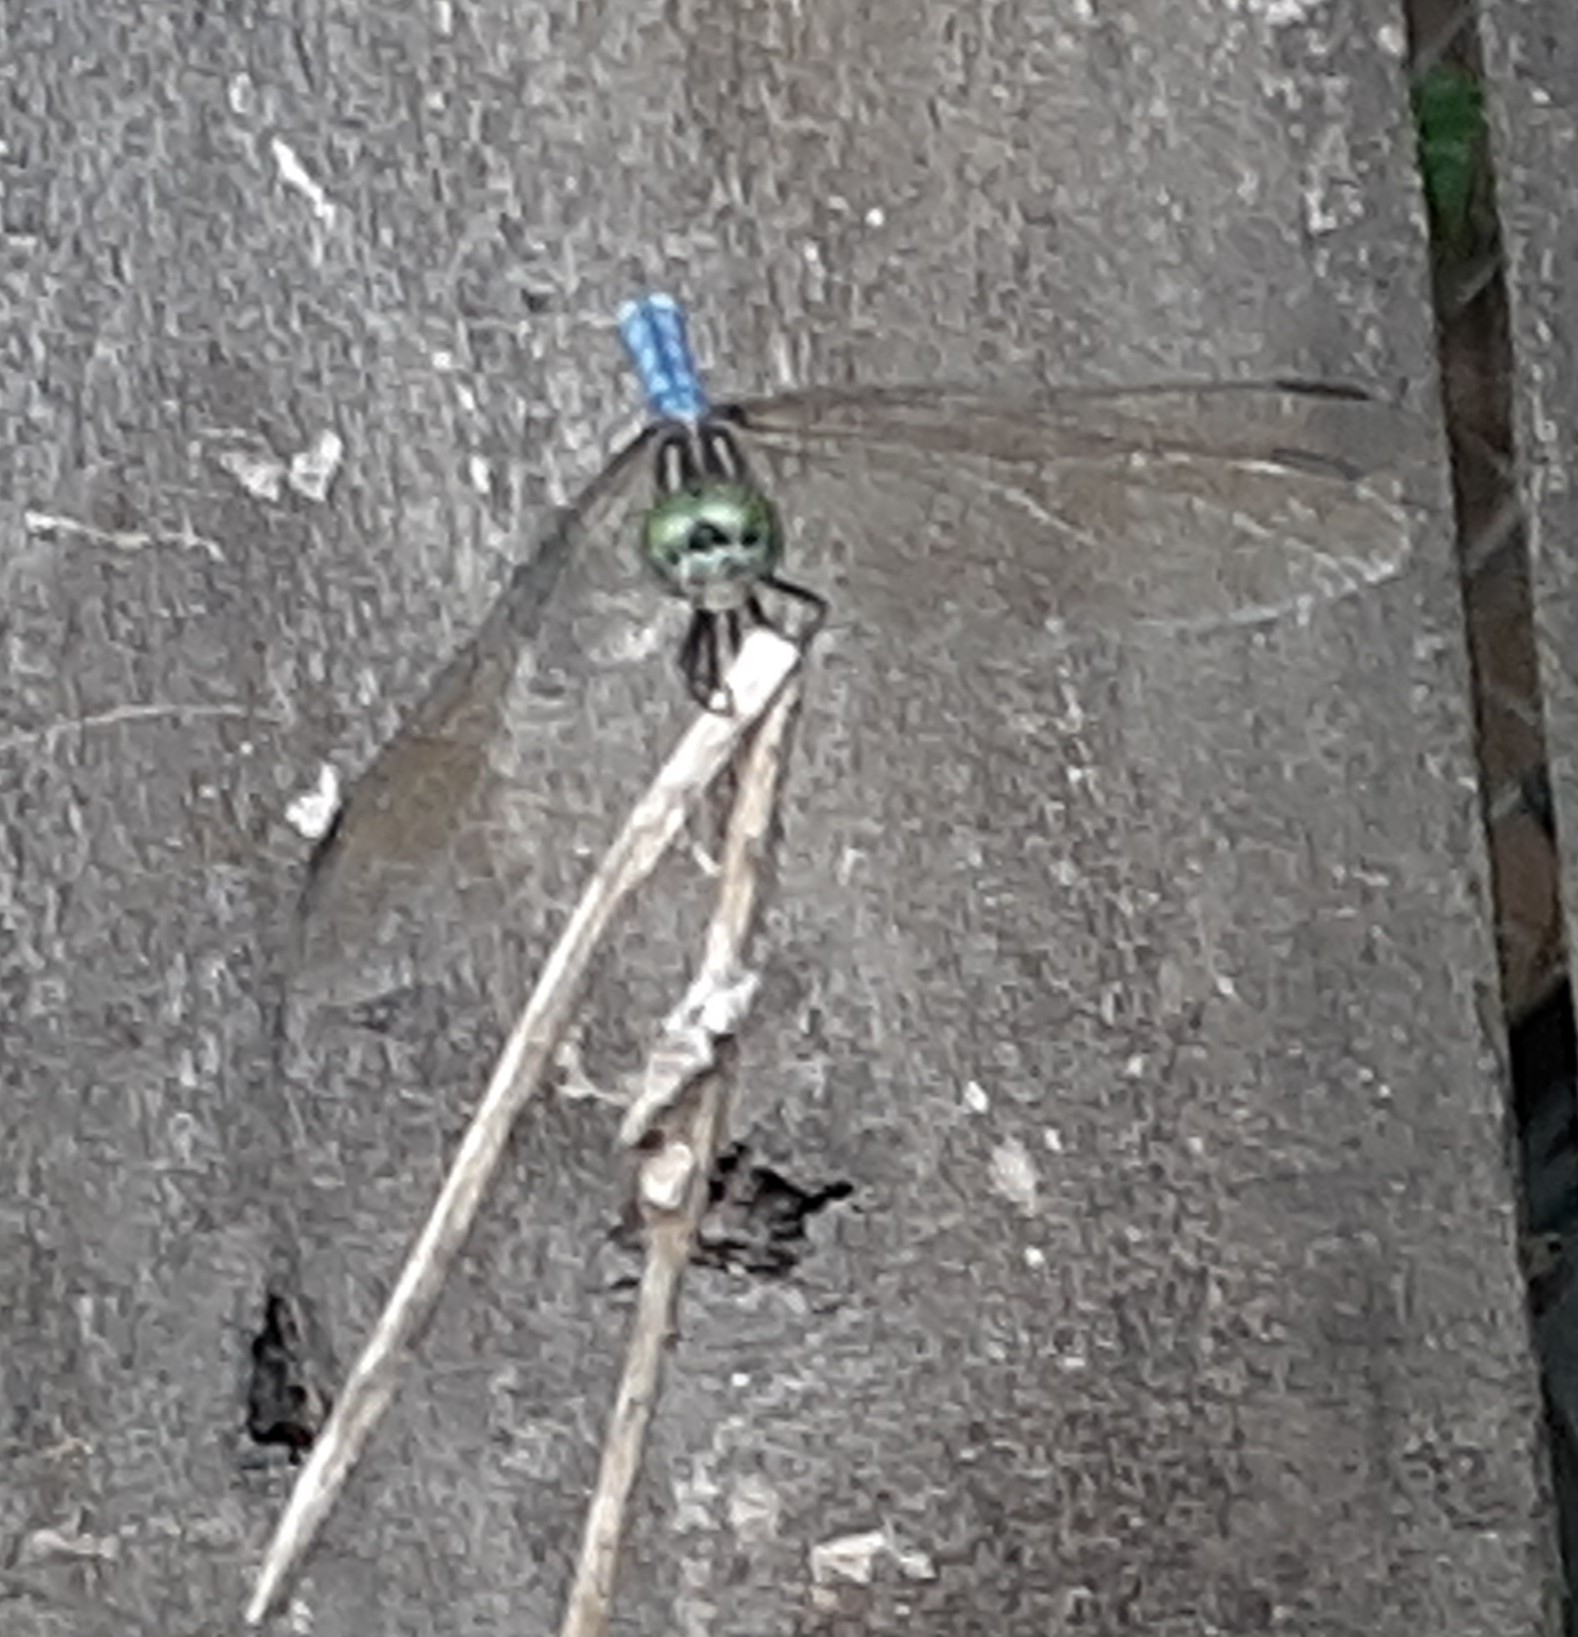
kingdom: Animalia
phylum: Arthropoda
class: Insecta
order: Odonata
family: Libellulidae
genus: Pachydiplax
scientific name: Pachydiplax longipennis
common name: Blue dasher
